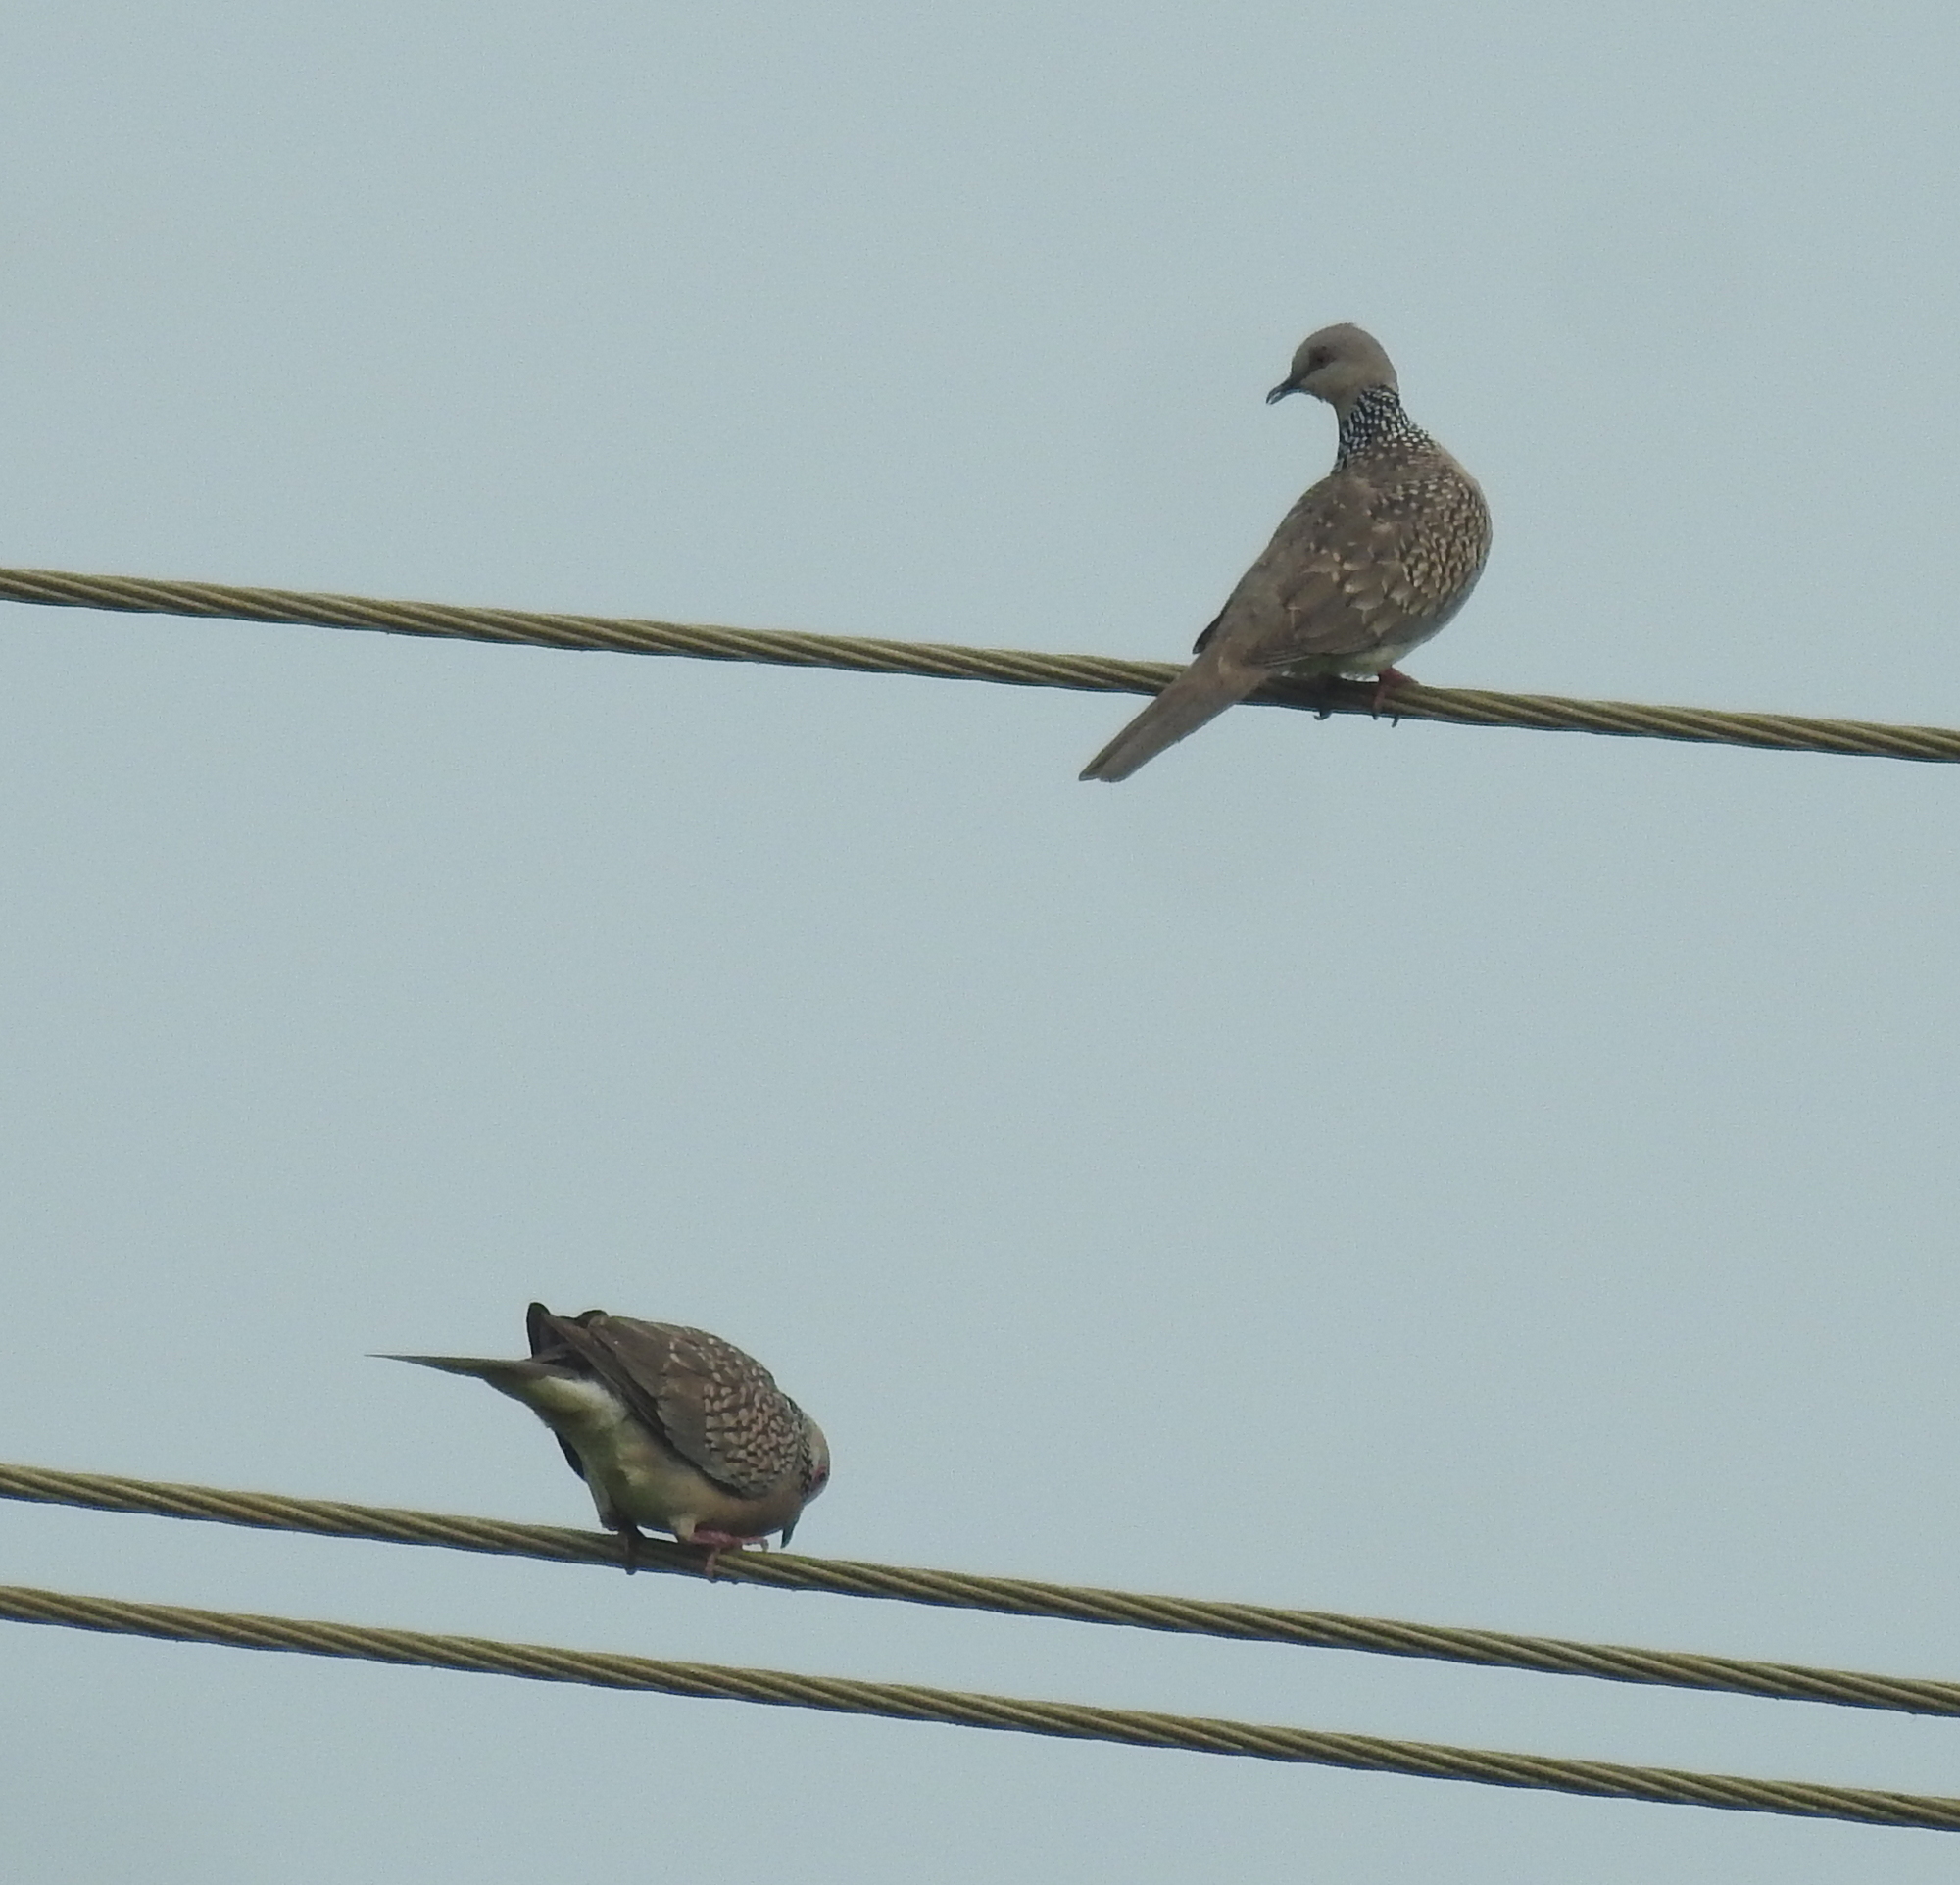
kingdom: Animalia
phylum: Chordata
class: Aves
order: Columbiformes
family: Columbidae
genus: Spilopelia
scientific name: Spilopelia chinensis
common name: Spotted dove
